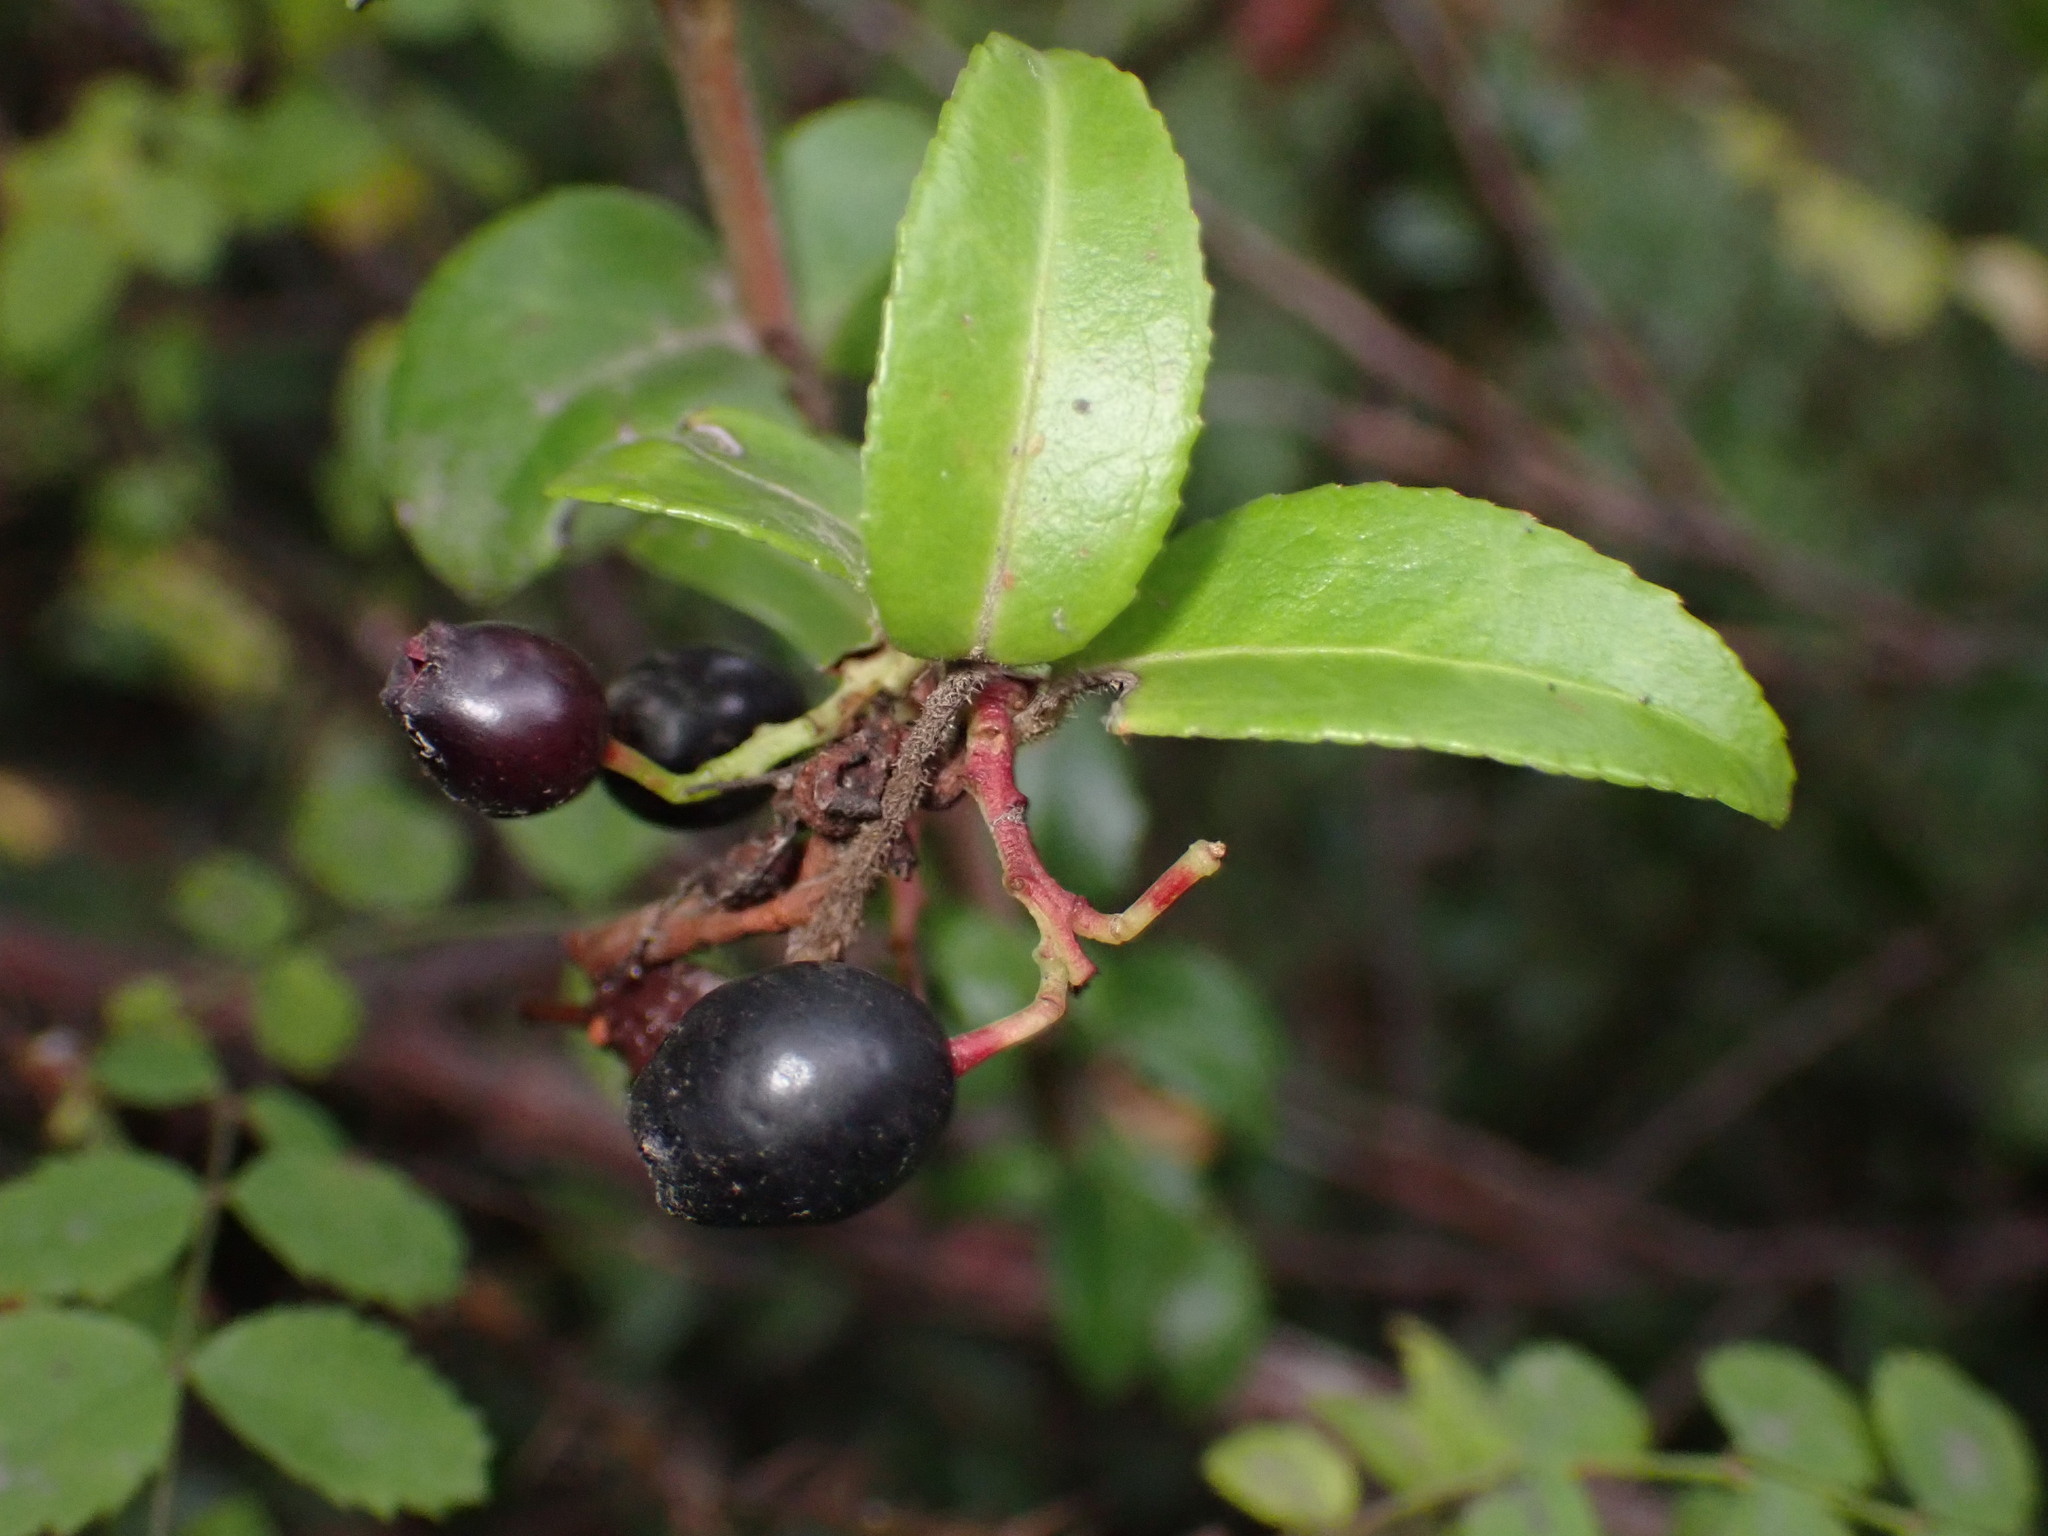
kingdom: Plantae
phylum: Tracheophyta
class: Magnoliopsida
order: Ericales
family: Ericaceae
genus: Vaccinium
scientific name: Vaccinium ovatum
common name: California-huckleberry
